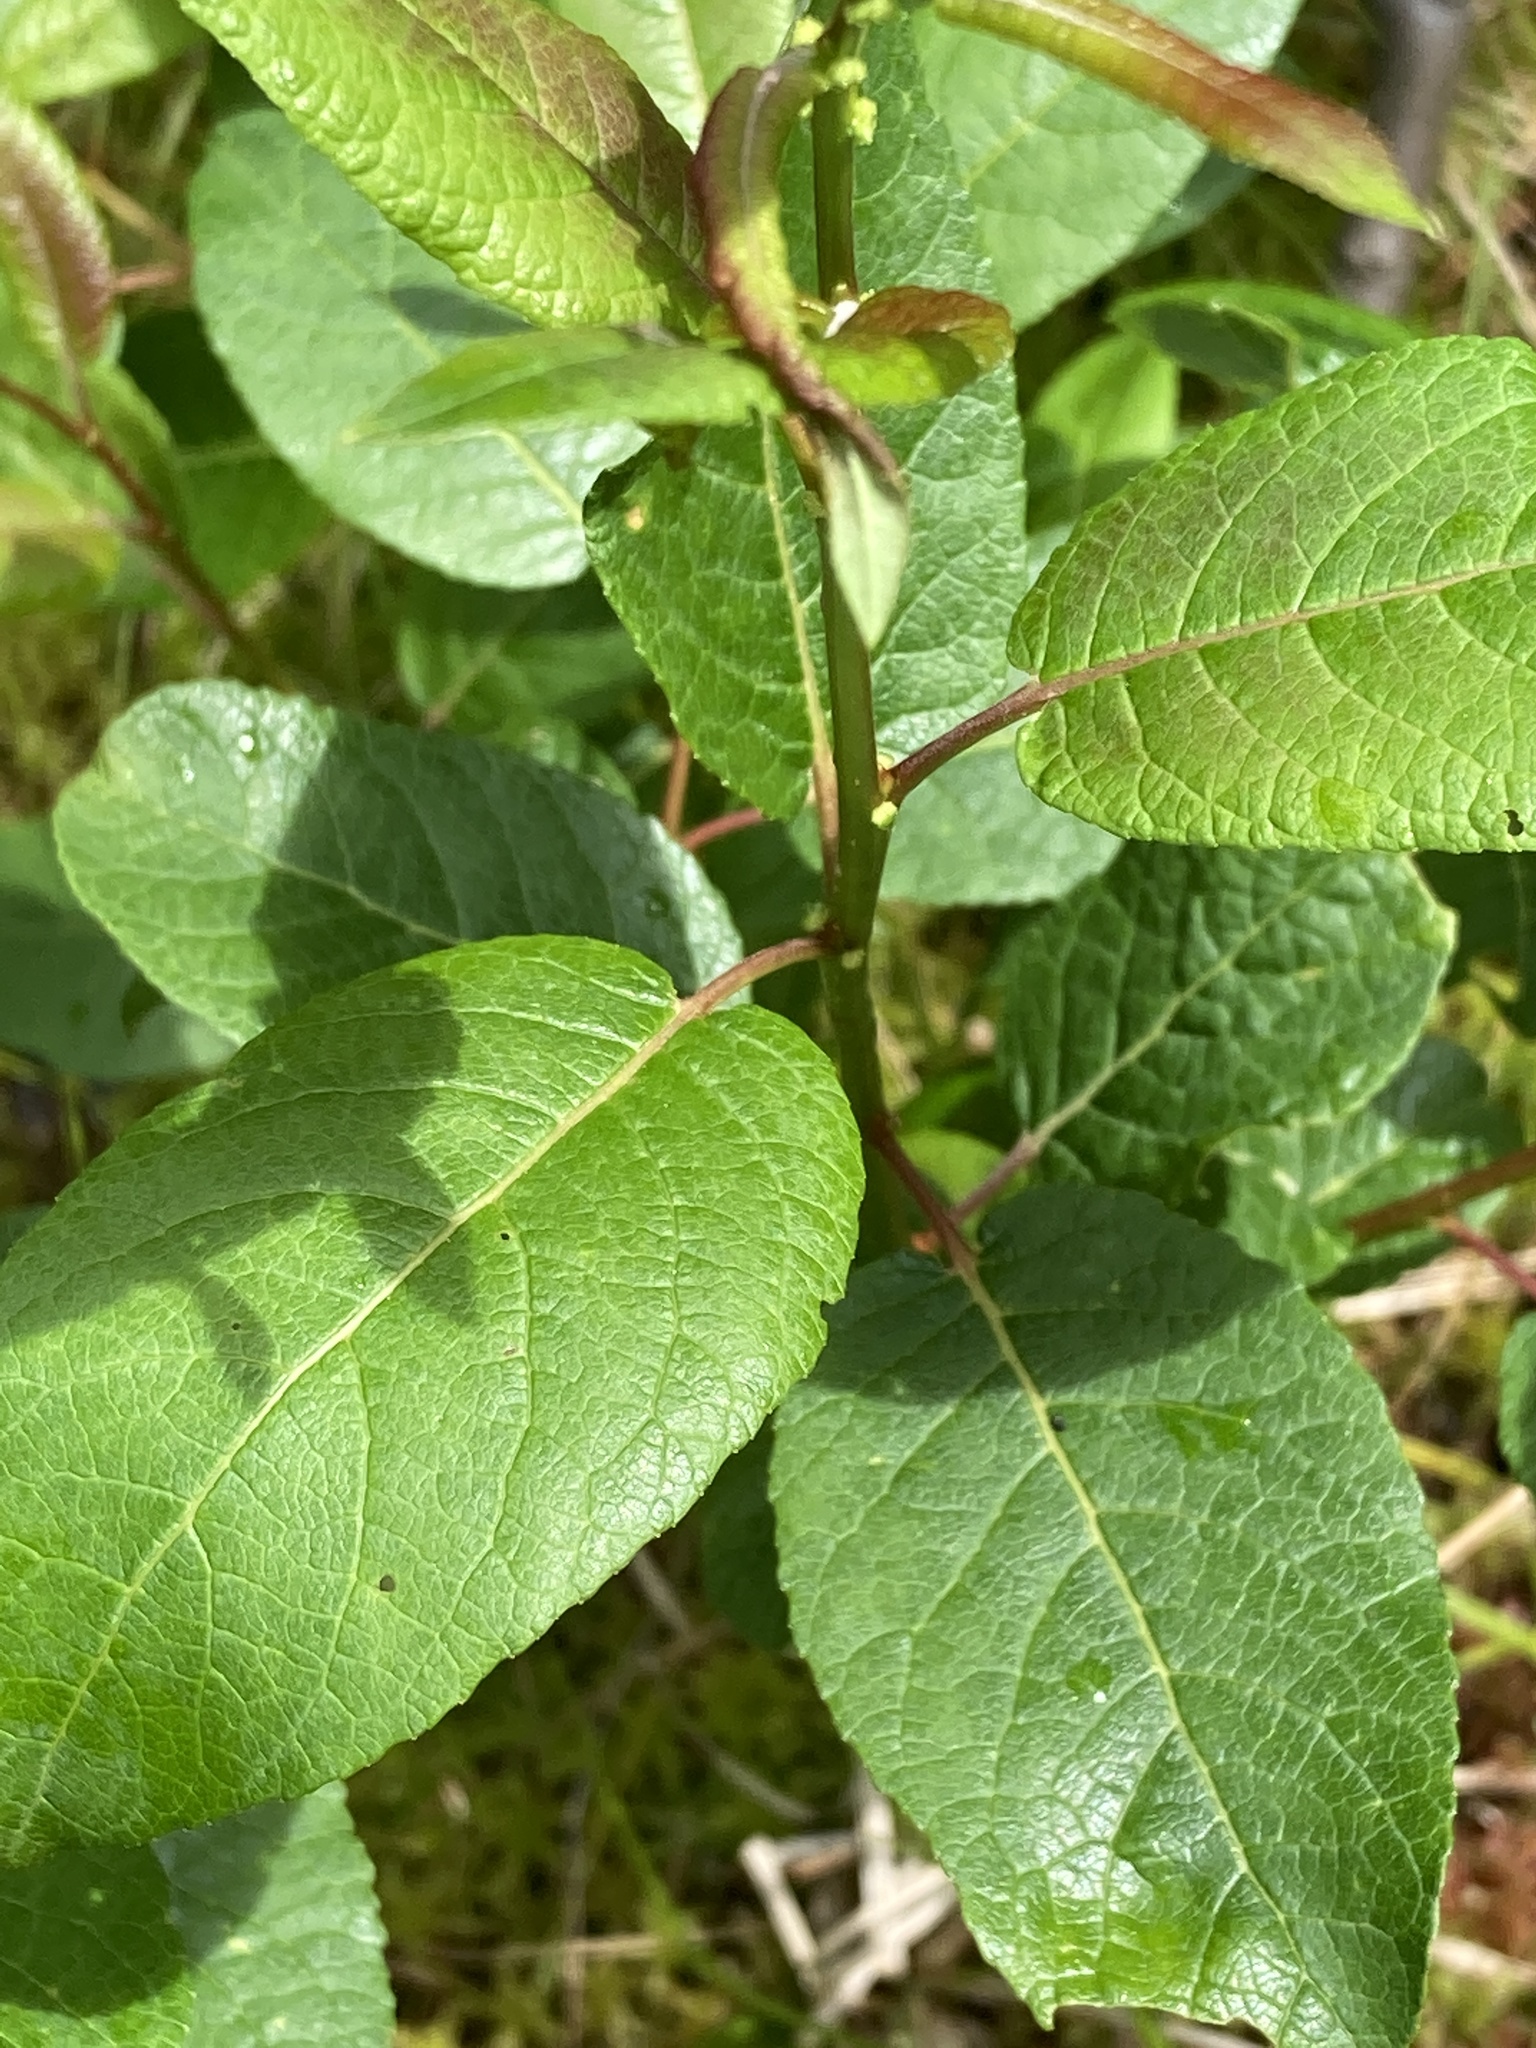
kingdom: Plantae
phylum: Tracheophyta
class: Magnoliopsida
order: Malpighiales
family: Salicaceae
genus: Salix
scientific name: Salix pyrifolia
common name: Balsam willow
